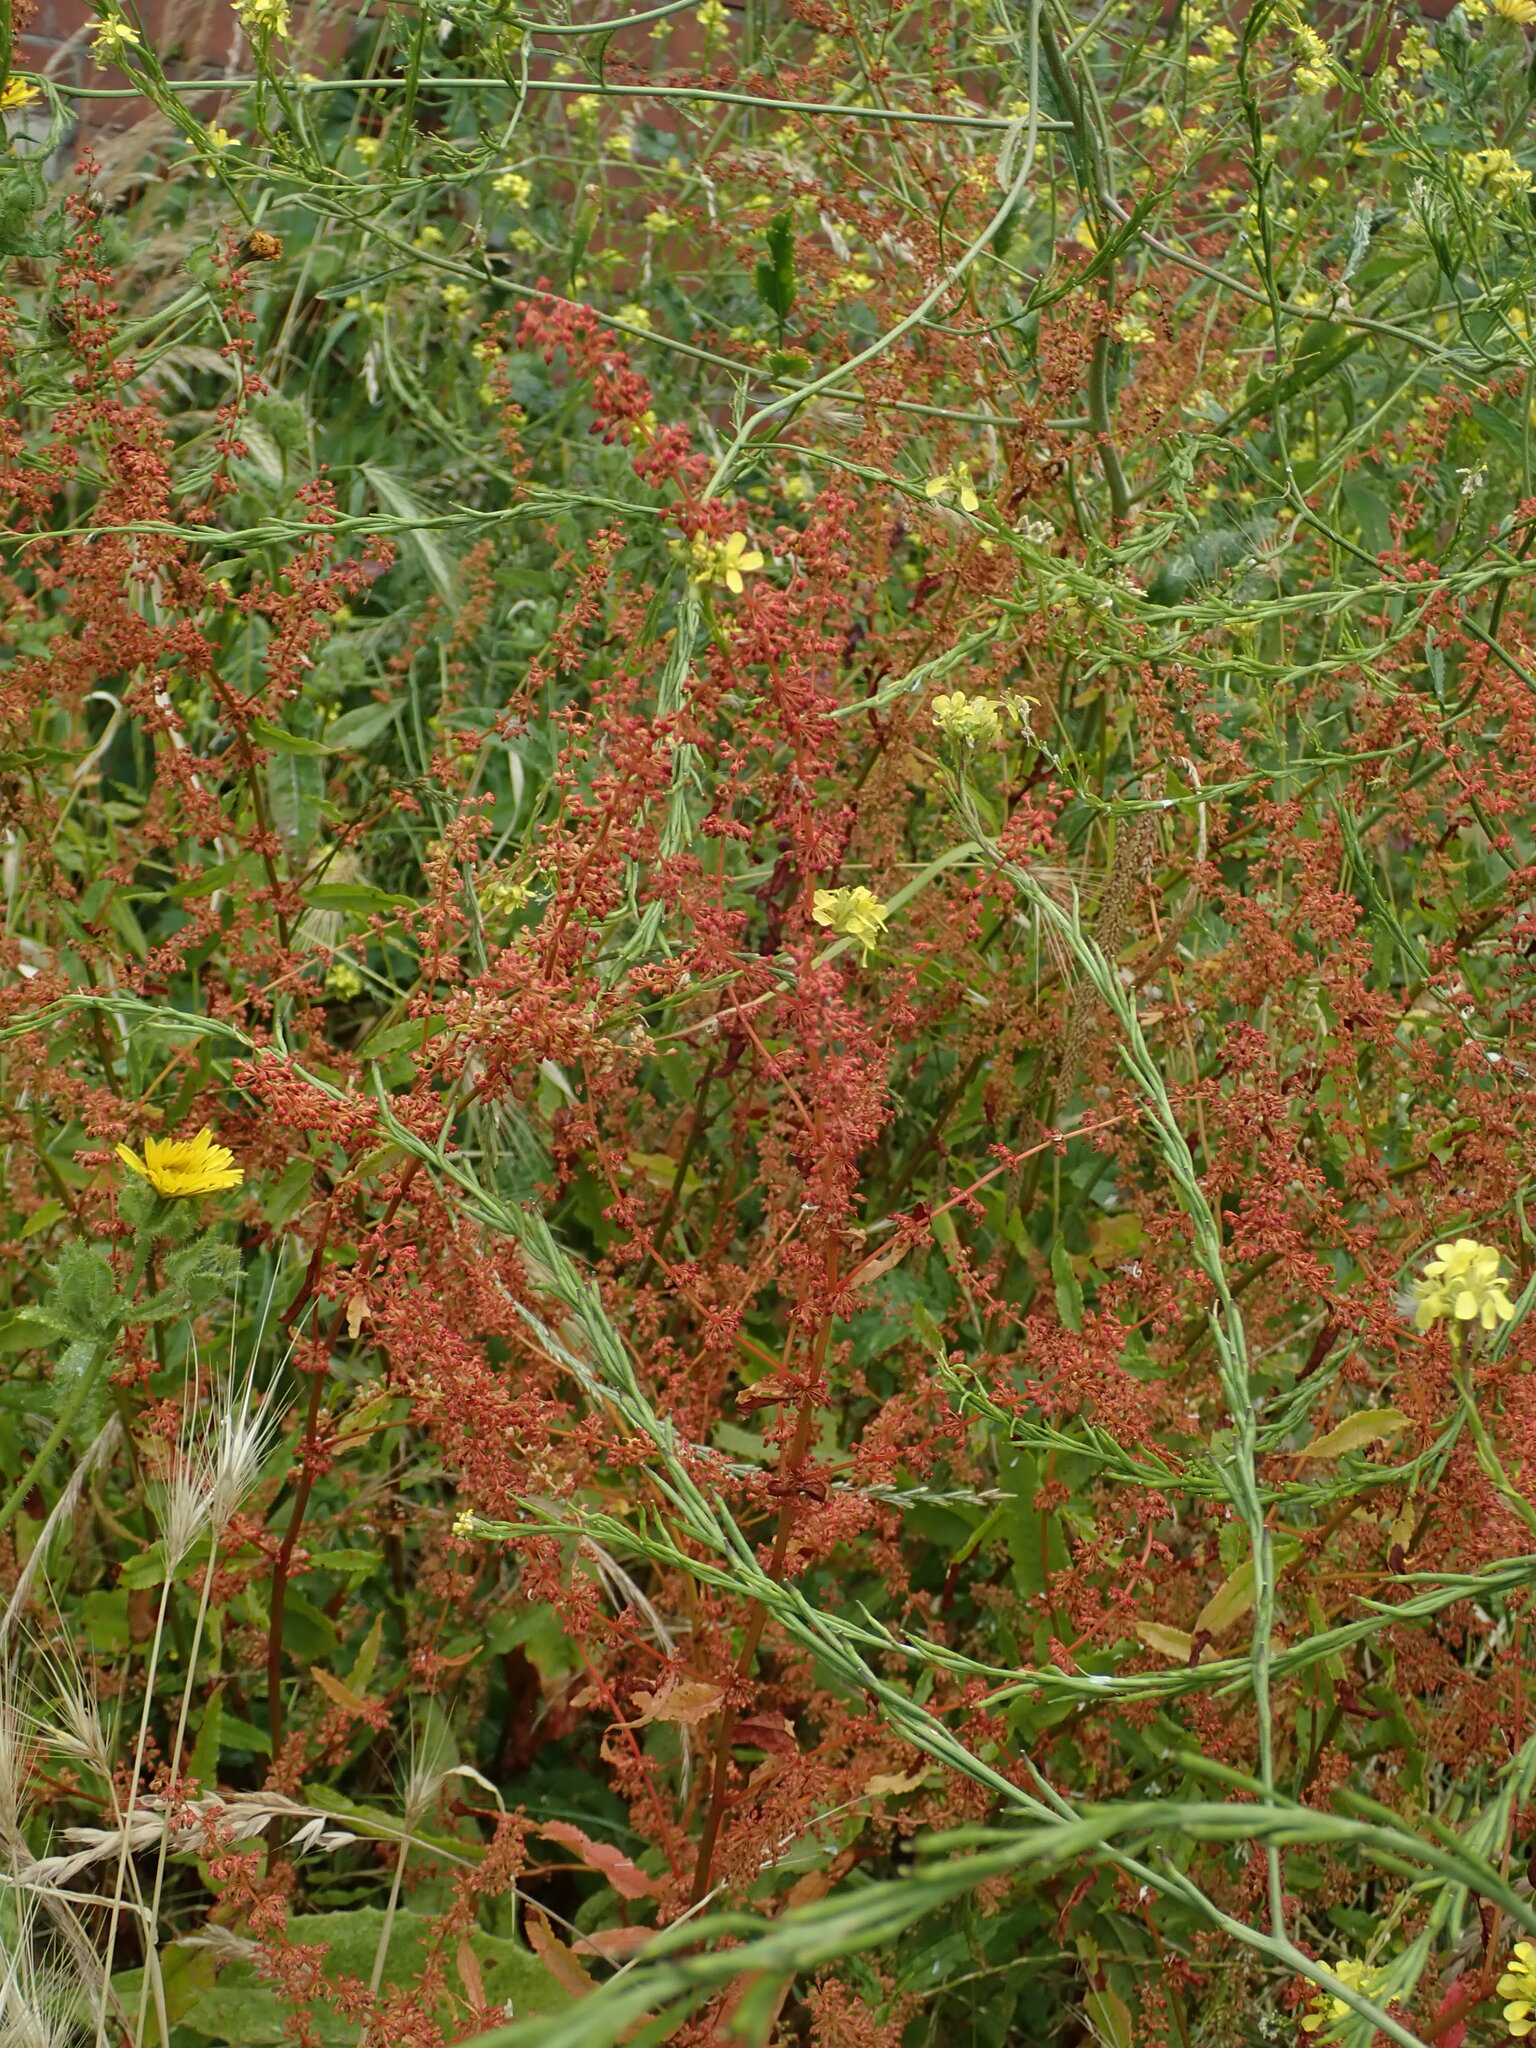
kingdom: Plantae
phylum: Tracheophyta
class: Magnoliopsida
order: Caryophyllales
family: Polygonaceae
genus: Rumex
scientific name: Rumex sanguineus
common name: Wood dock
